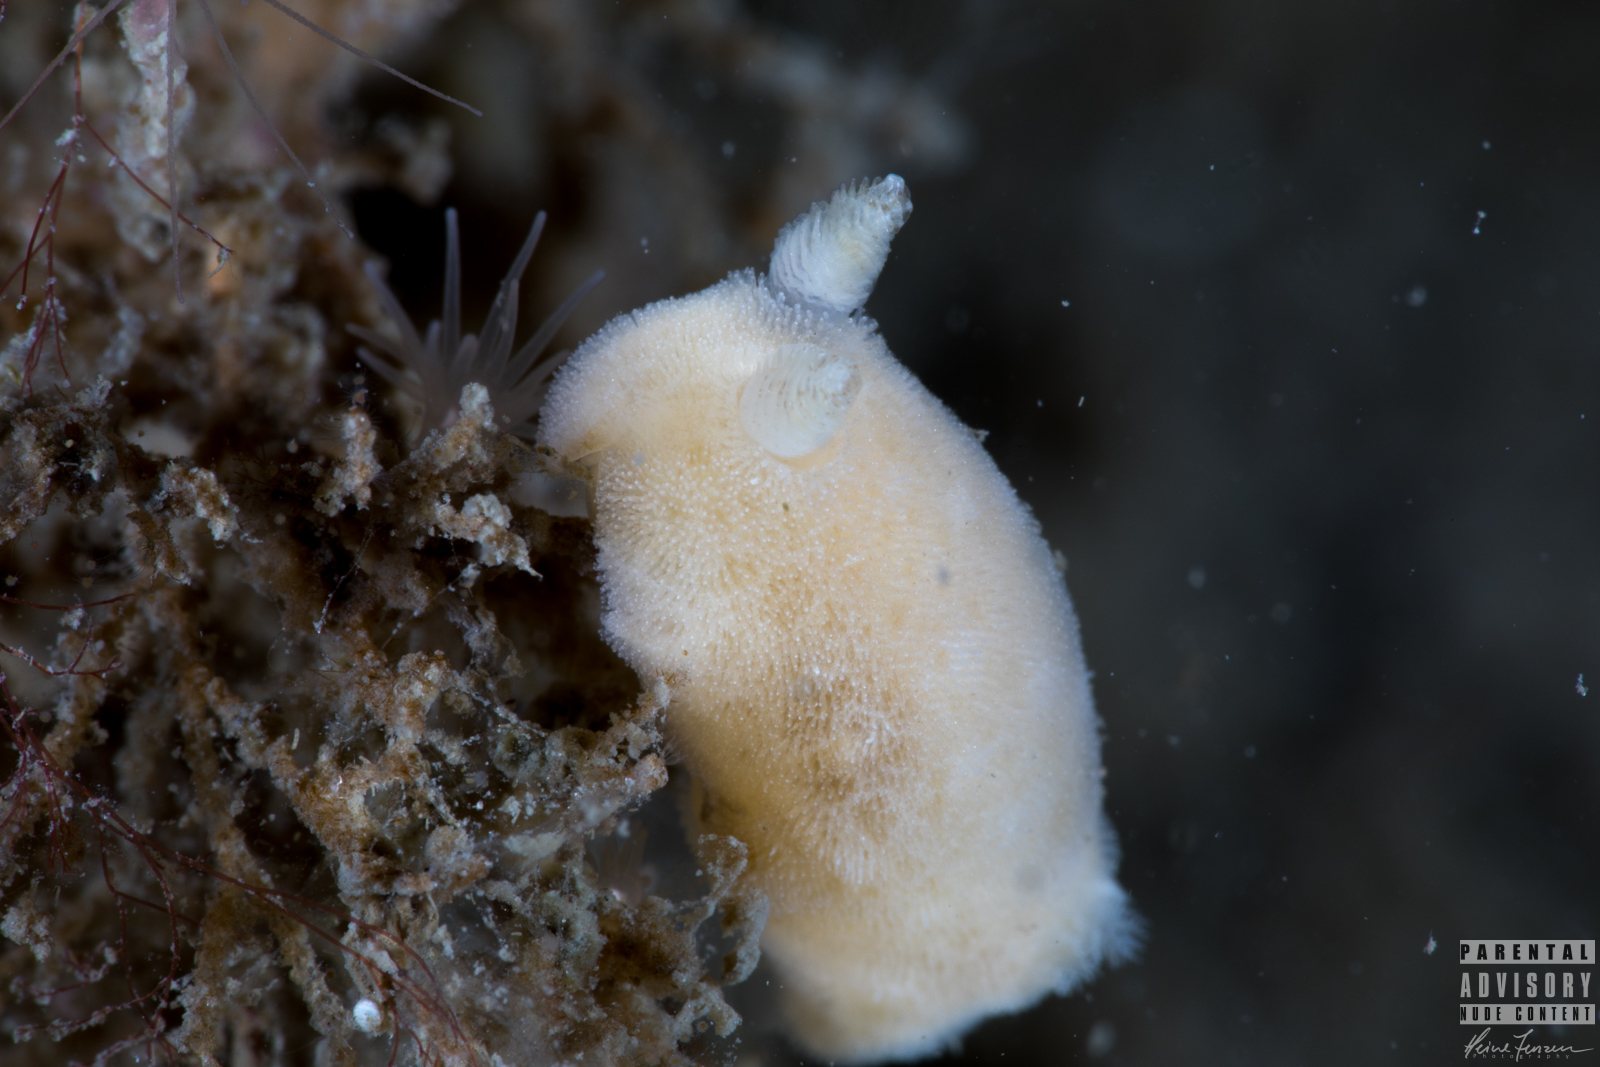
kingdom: Animalia
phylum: Mollusca
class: Gastropoda
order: Nudibranchia
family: Discodorididae
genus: Jorunna
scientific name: Jorunna tomentosa
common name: Grey sea slug
